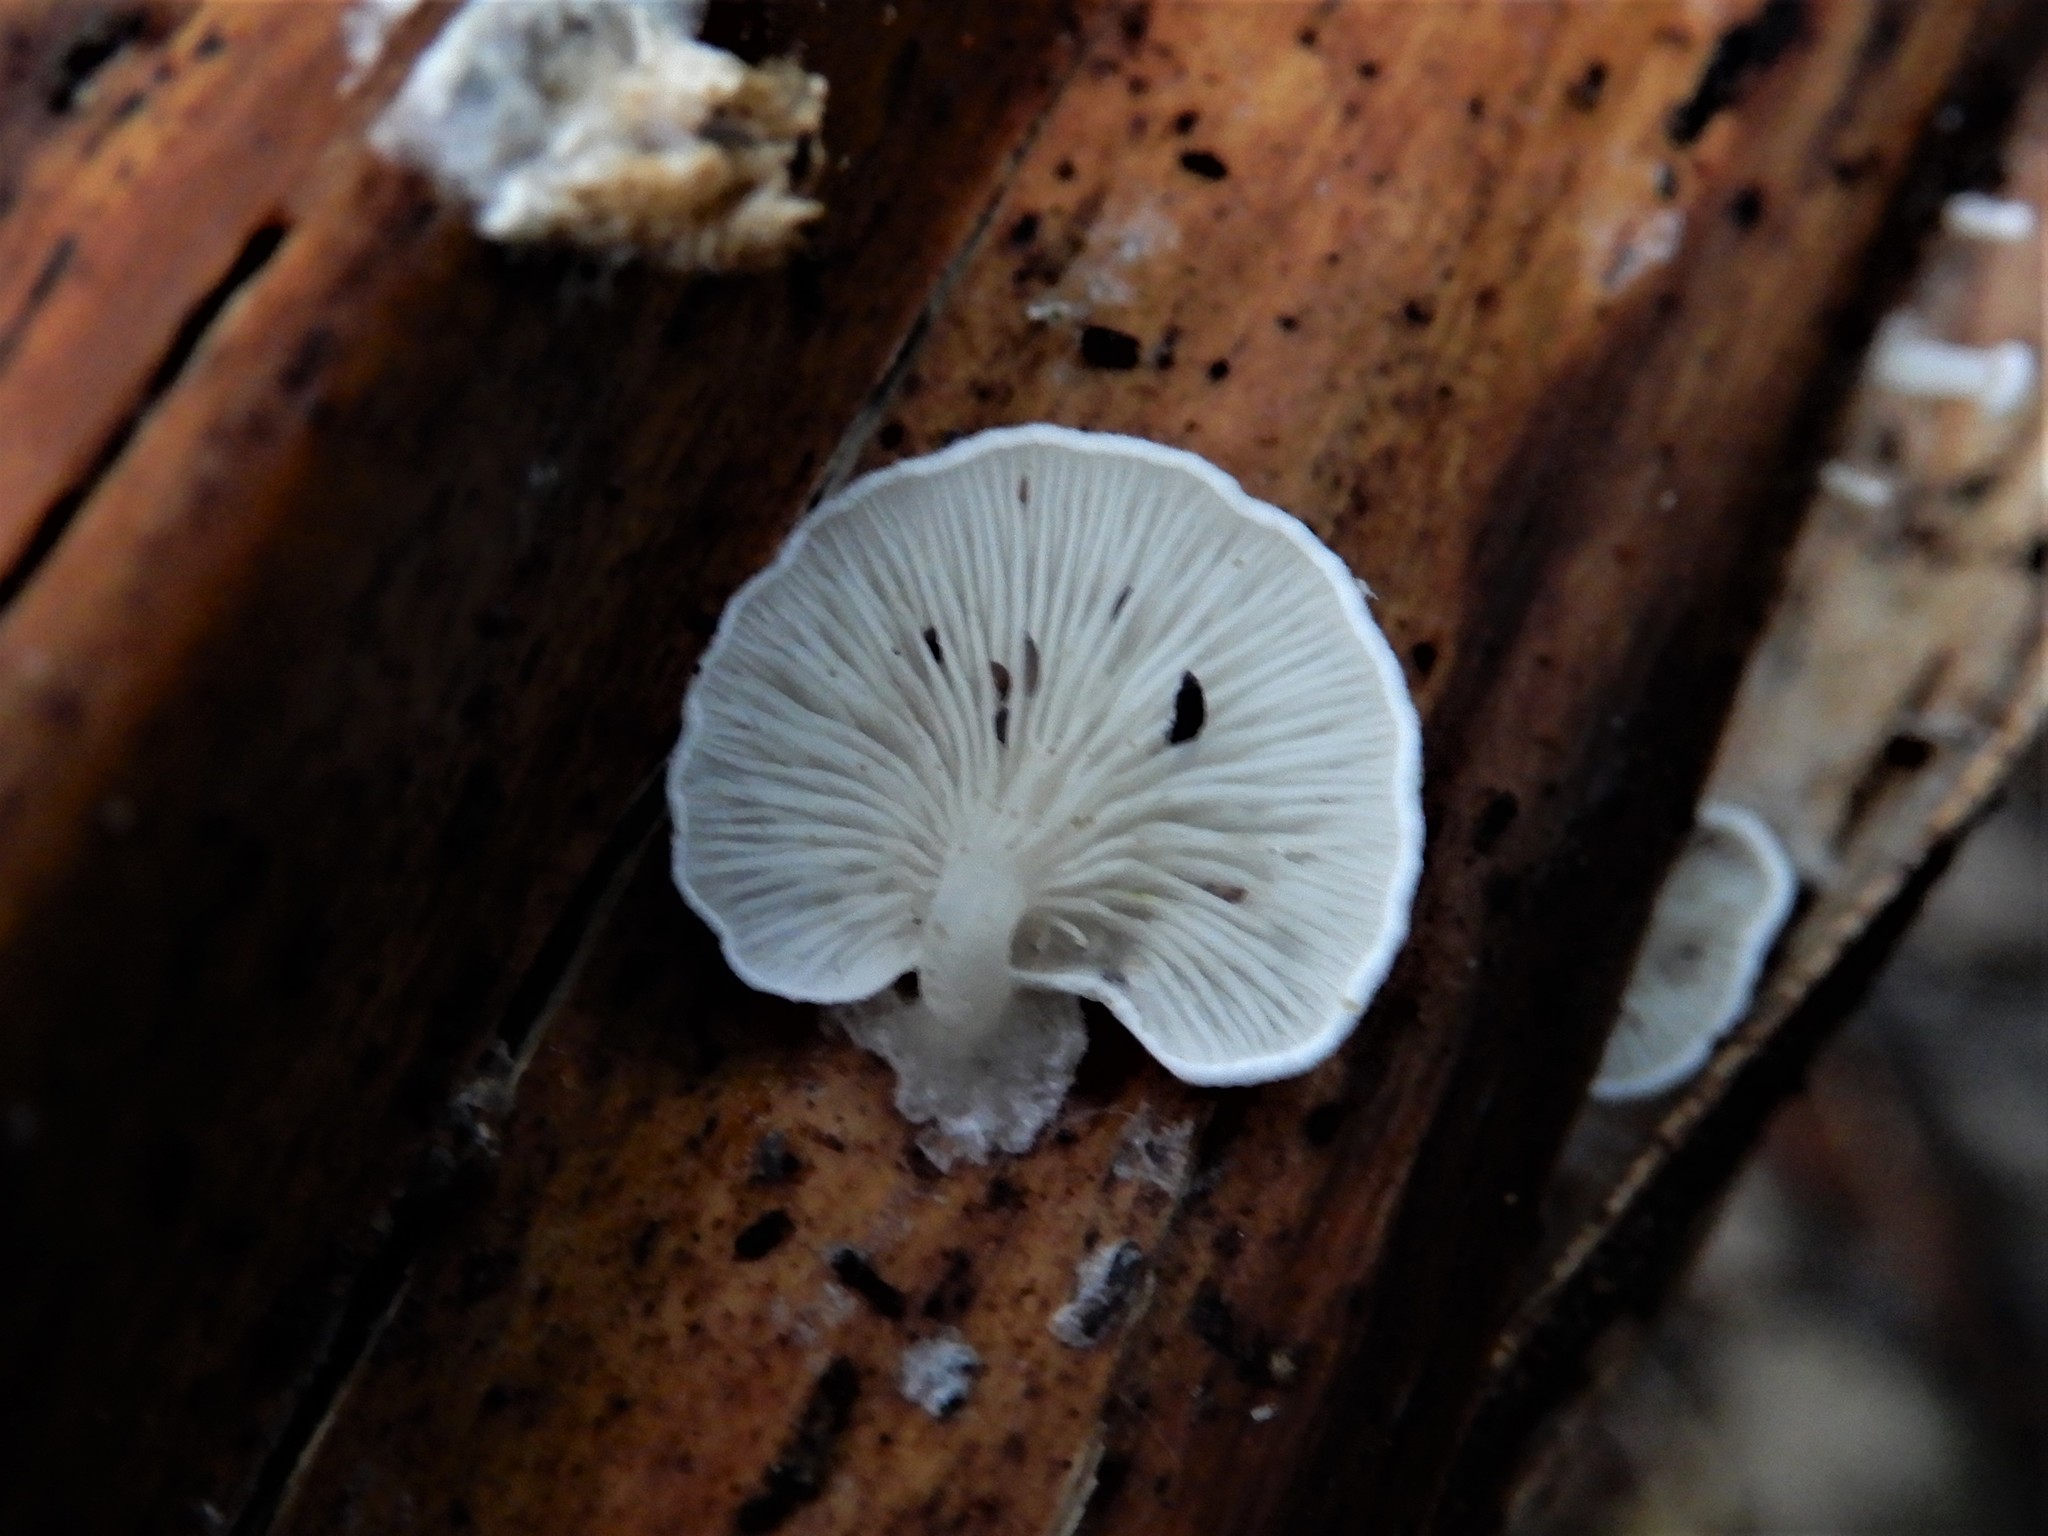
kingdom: Fungi
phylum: Basidiomycota
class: Agaricomycetes
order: Agaricales
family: Tricholomataceae
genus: Rhizocybe
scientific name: Rhizocybe albida
